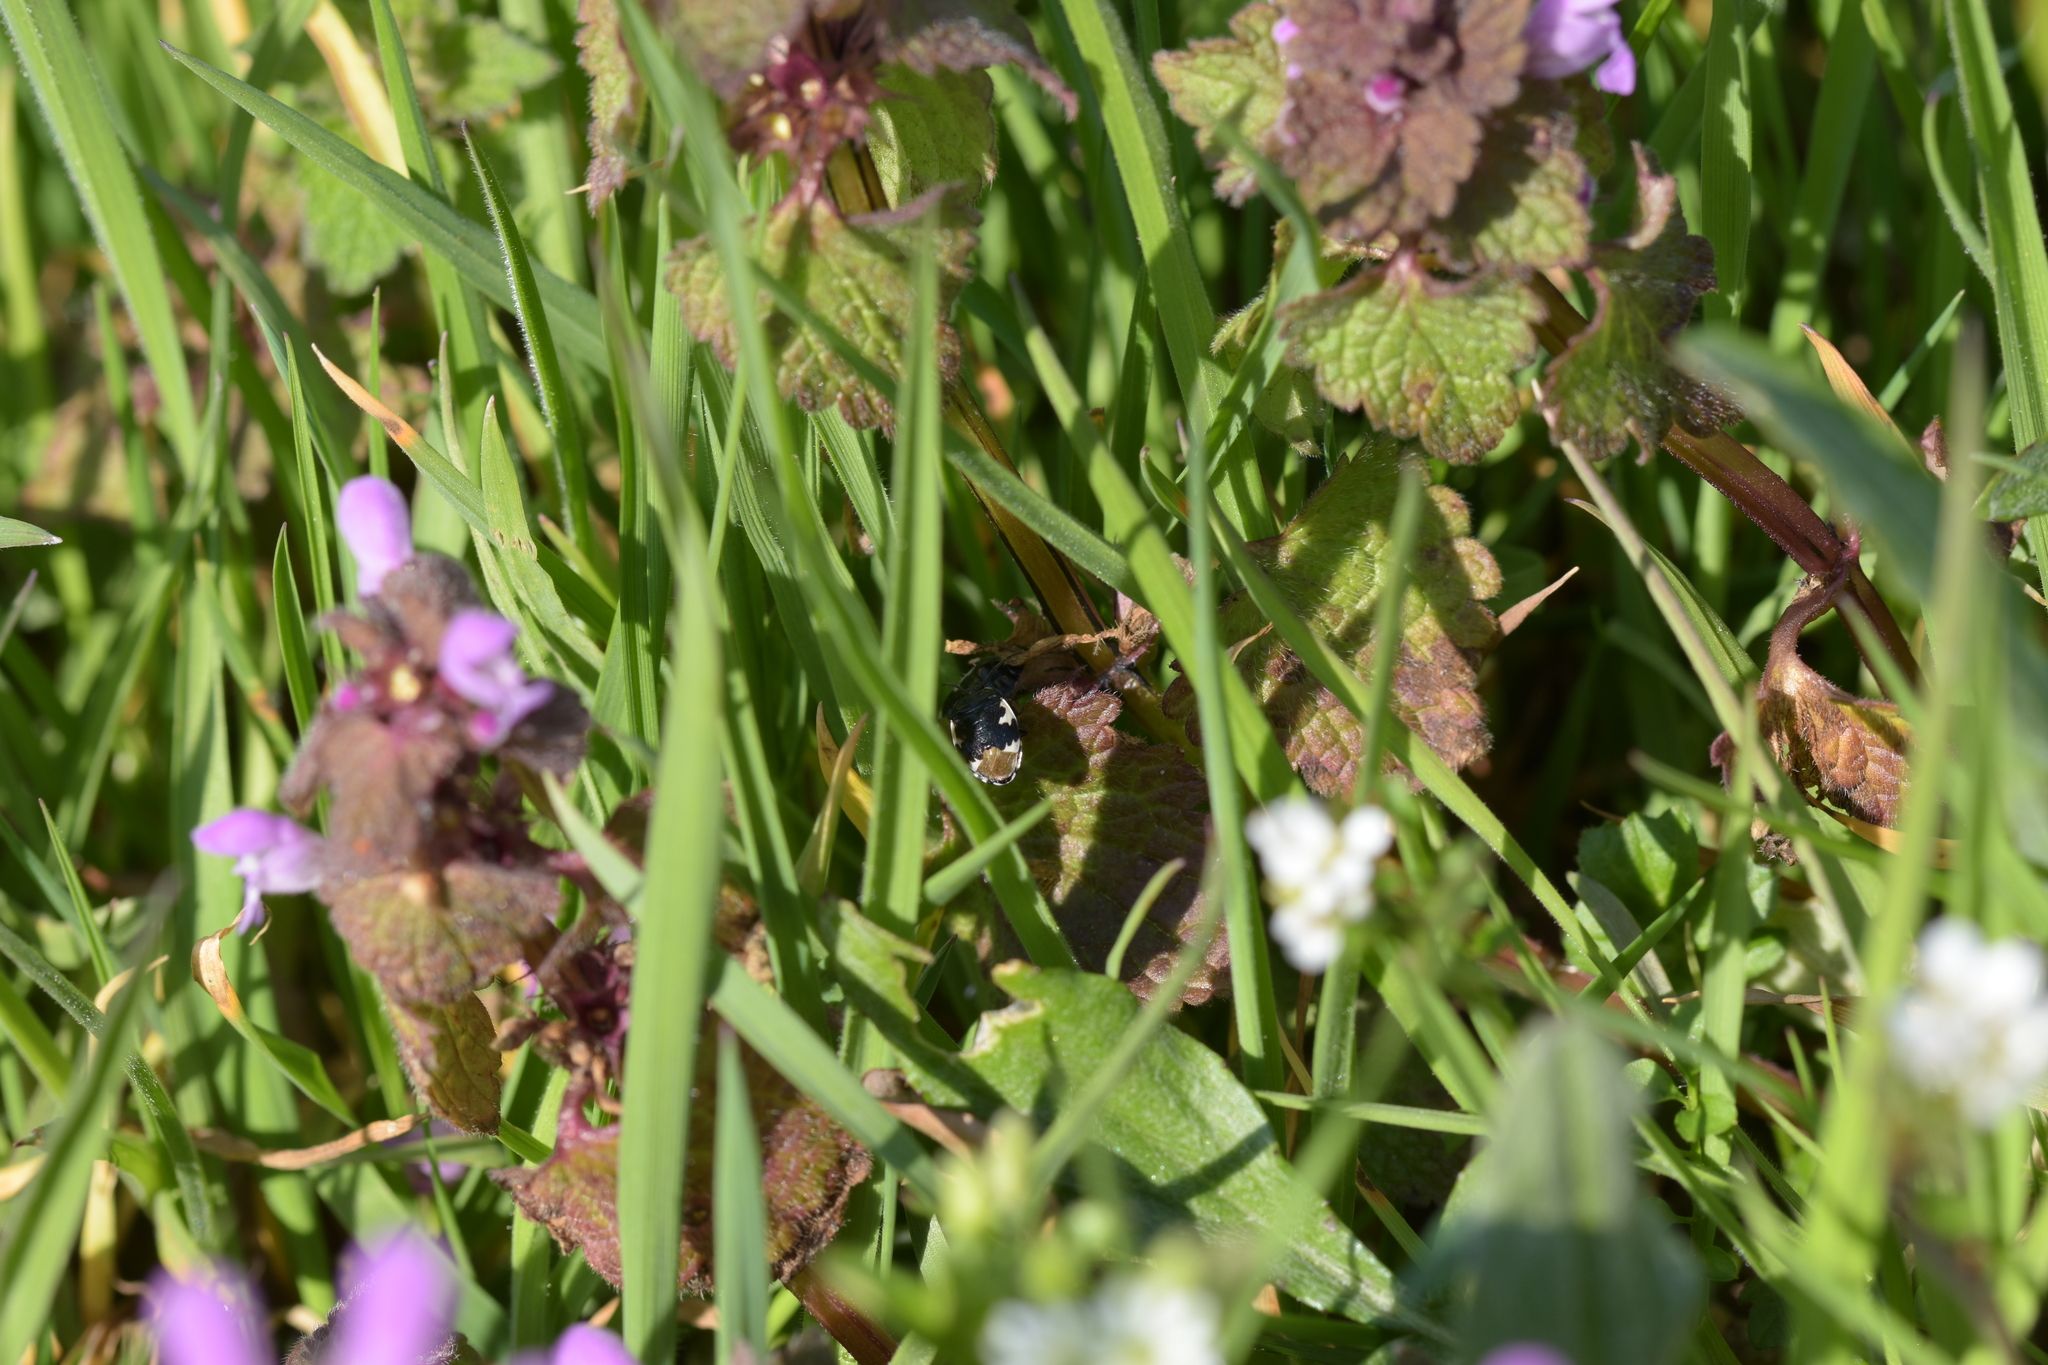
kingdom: Animalia
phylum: Arthropoda
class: Insecta
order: Hemiptera
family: Cydnidae
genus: Tritomegas
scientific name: Tritomegas bicolor
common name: Pied shieldbug
